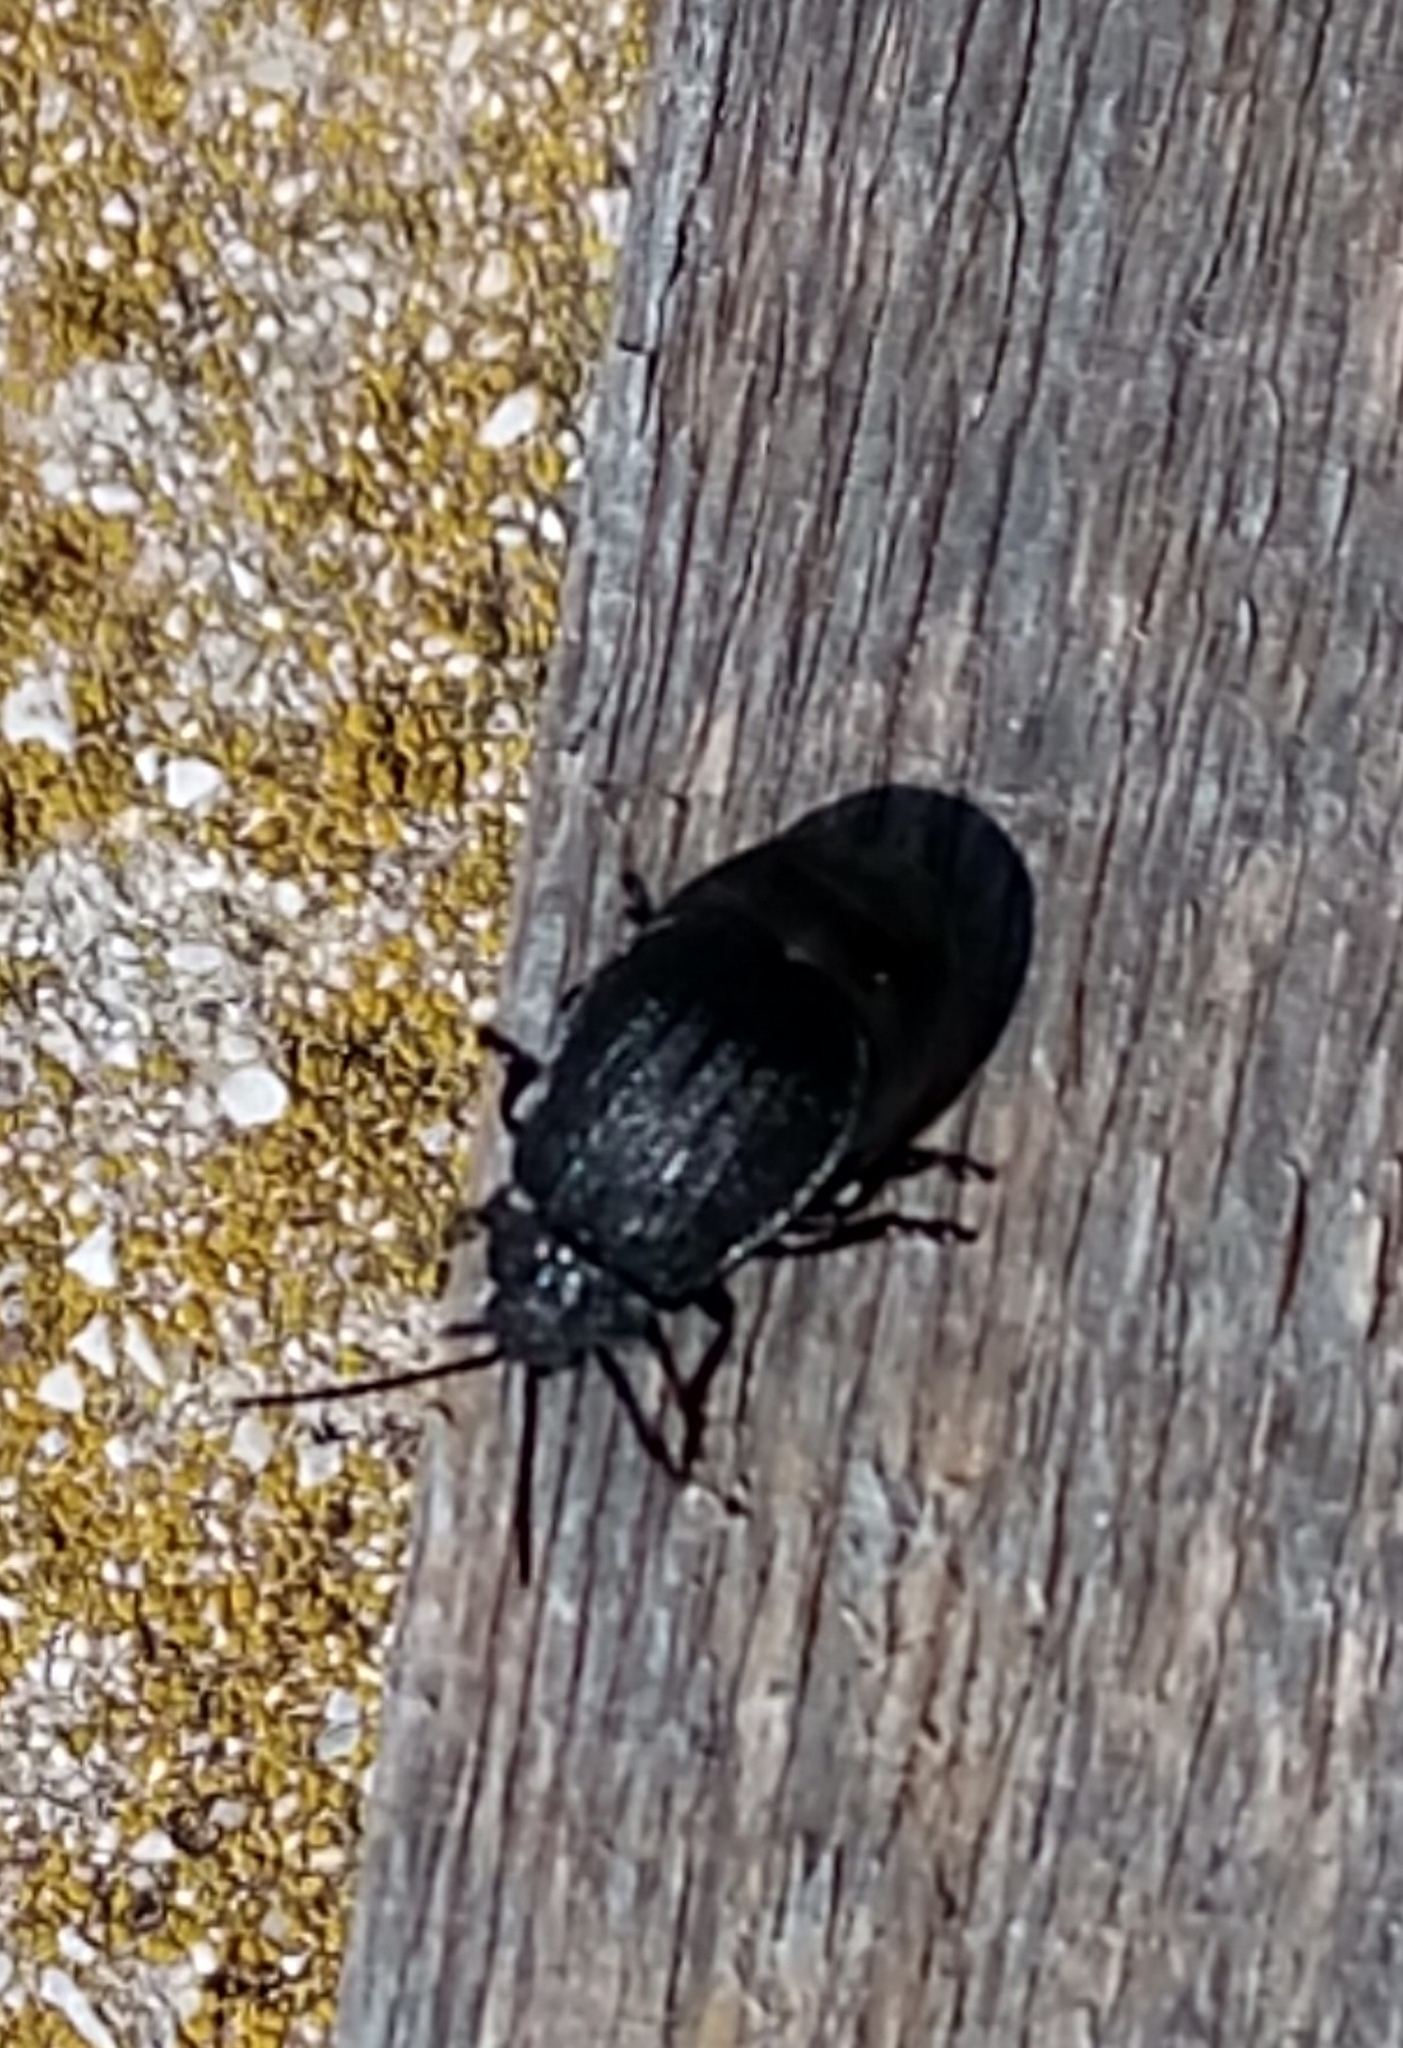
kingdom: Animalia
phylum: Arthropoda
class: Insecta
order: Coleoptera
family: Chrysomelidae
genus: Galeruca
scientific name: Galeruca tanaceti
